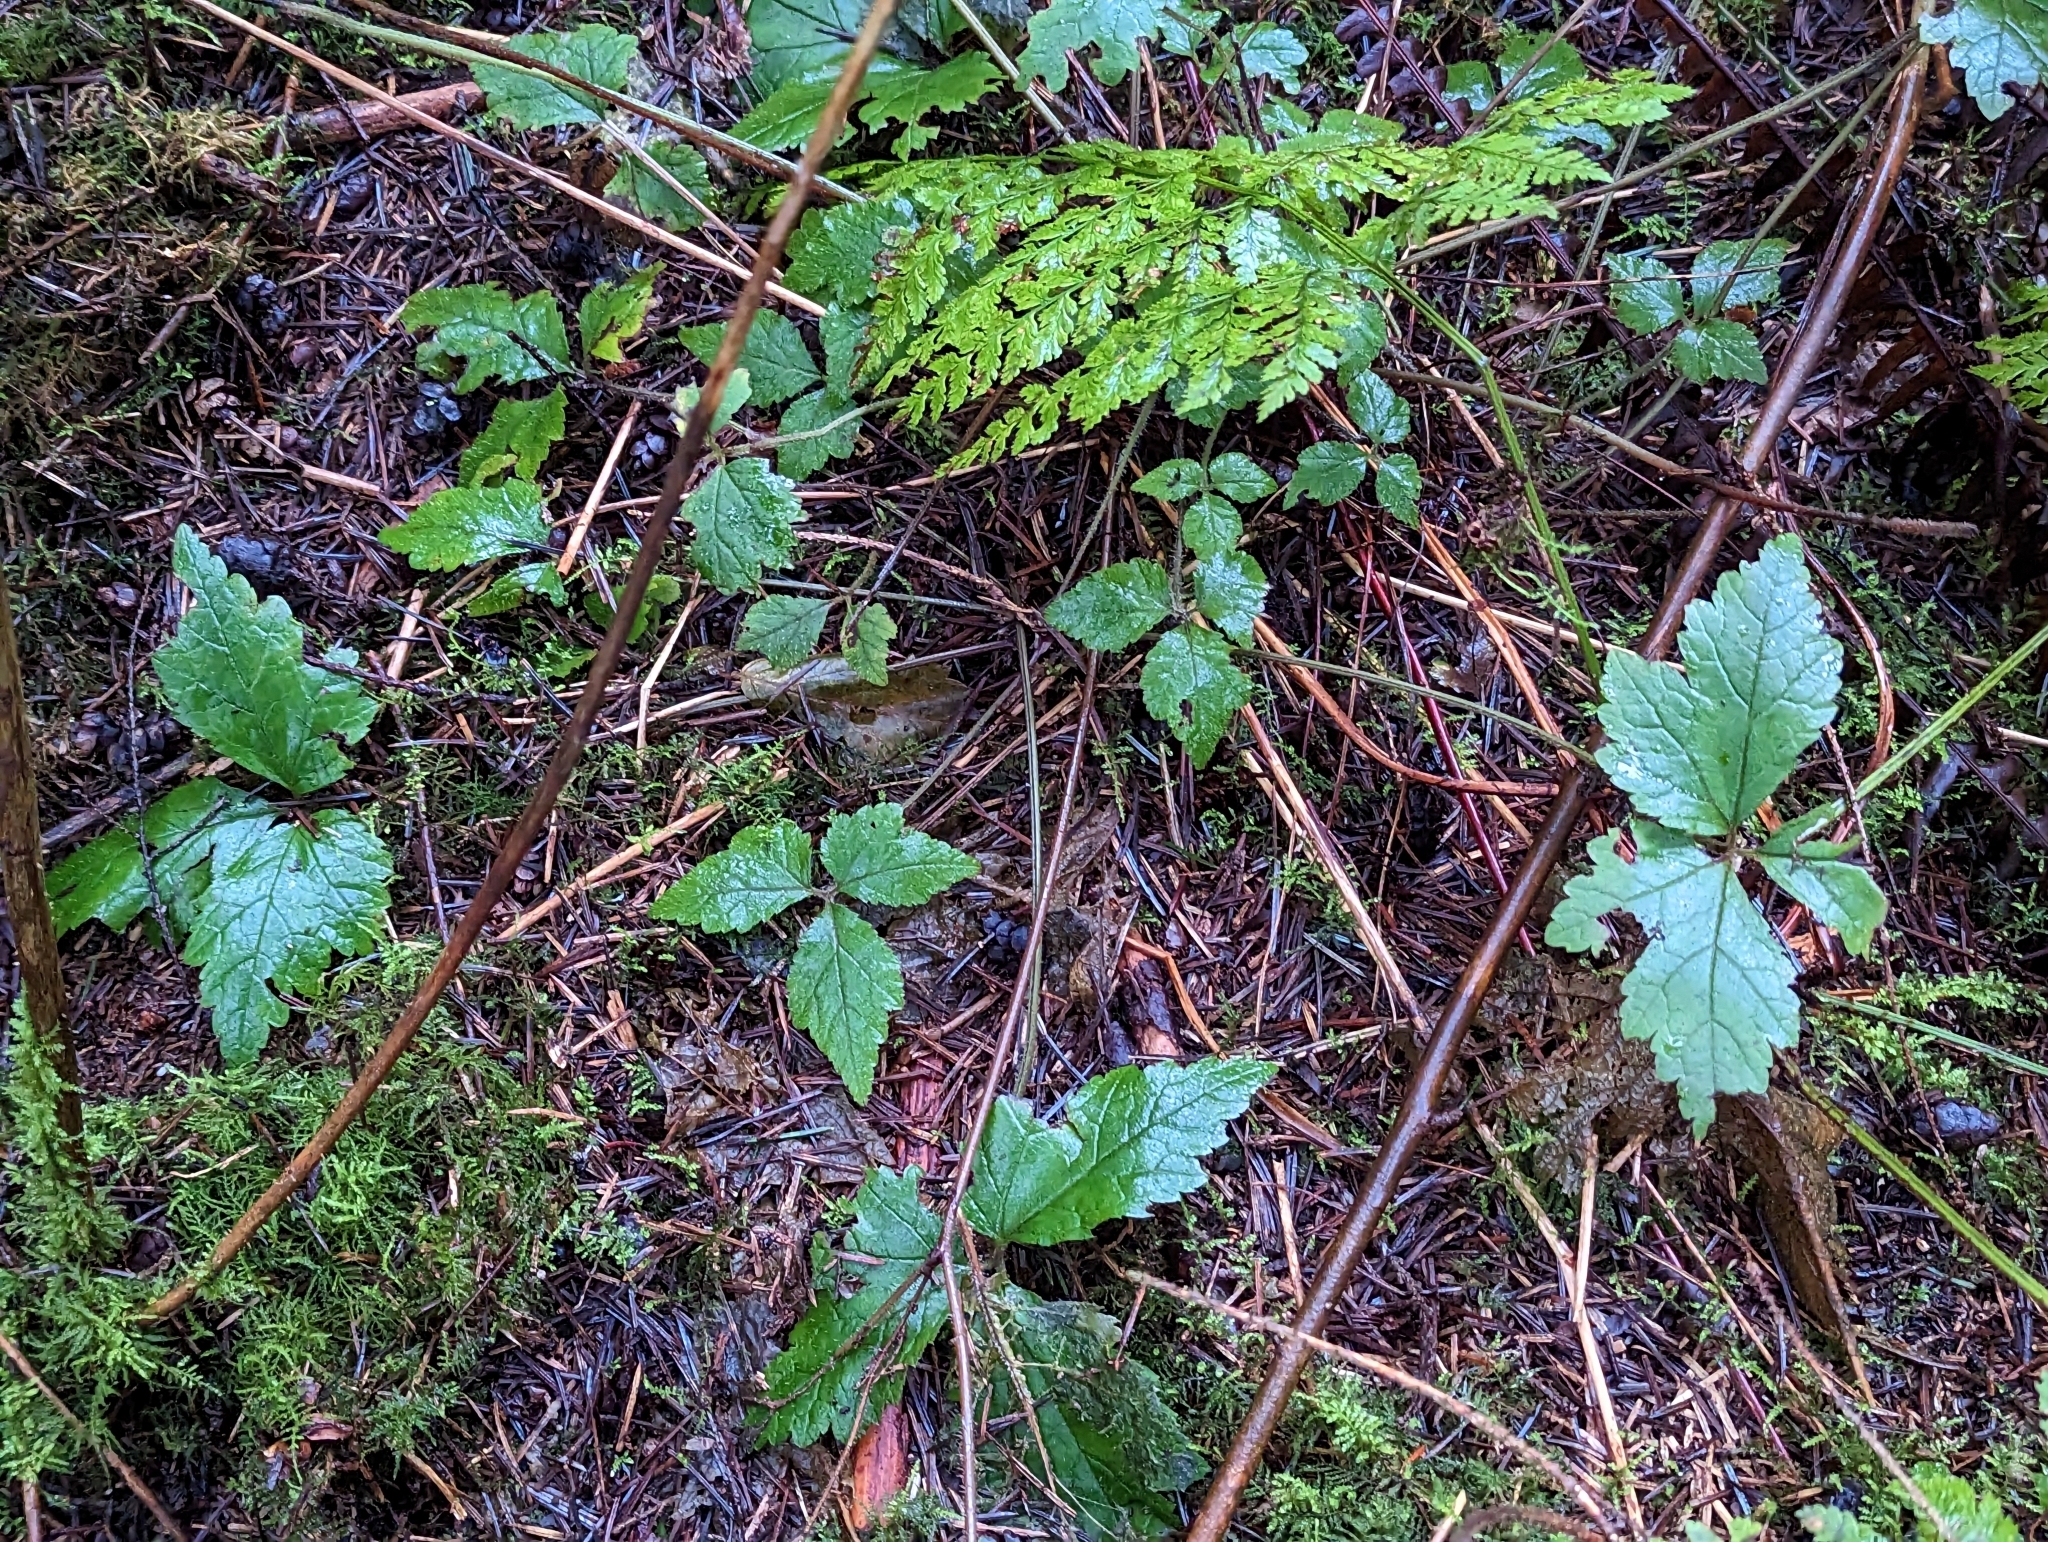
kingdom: Plantae
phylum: Tracheophyta
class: Magnoliopsida
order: Saxifragales
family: Saxifragaceae
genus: Tiarella
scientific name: Tiarella trifoliata
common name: Sugar-scoop
